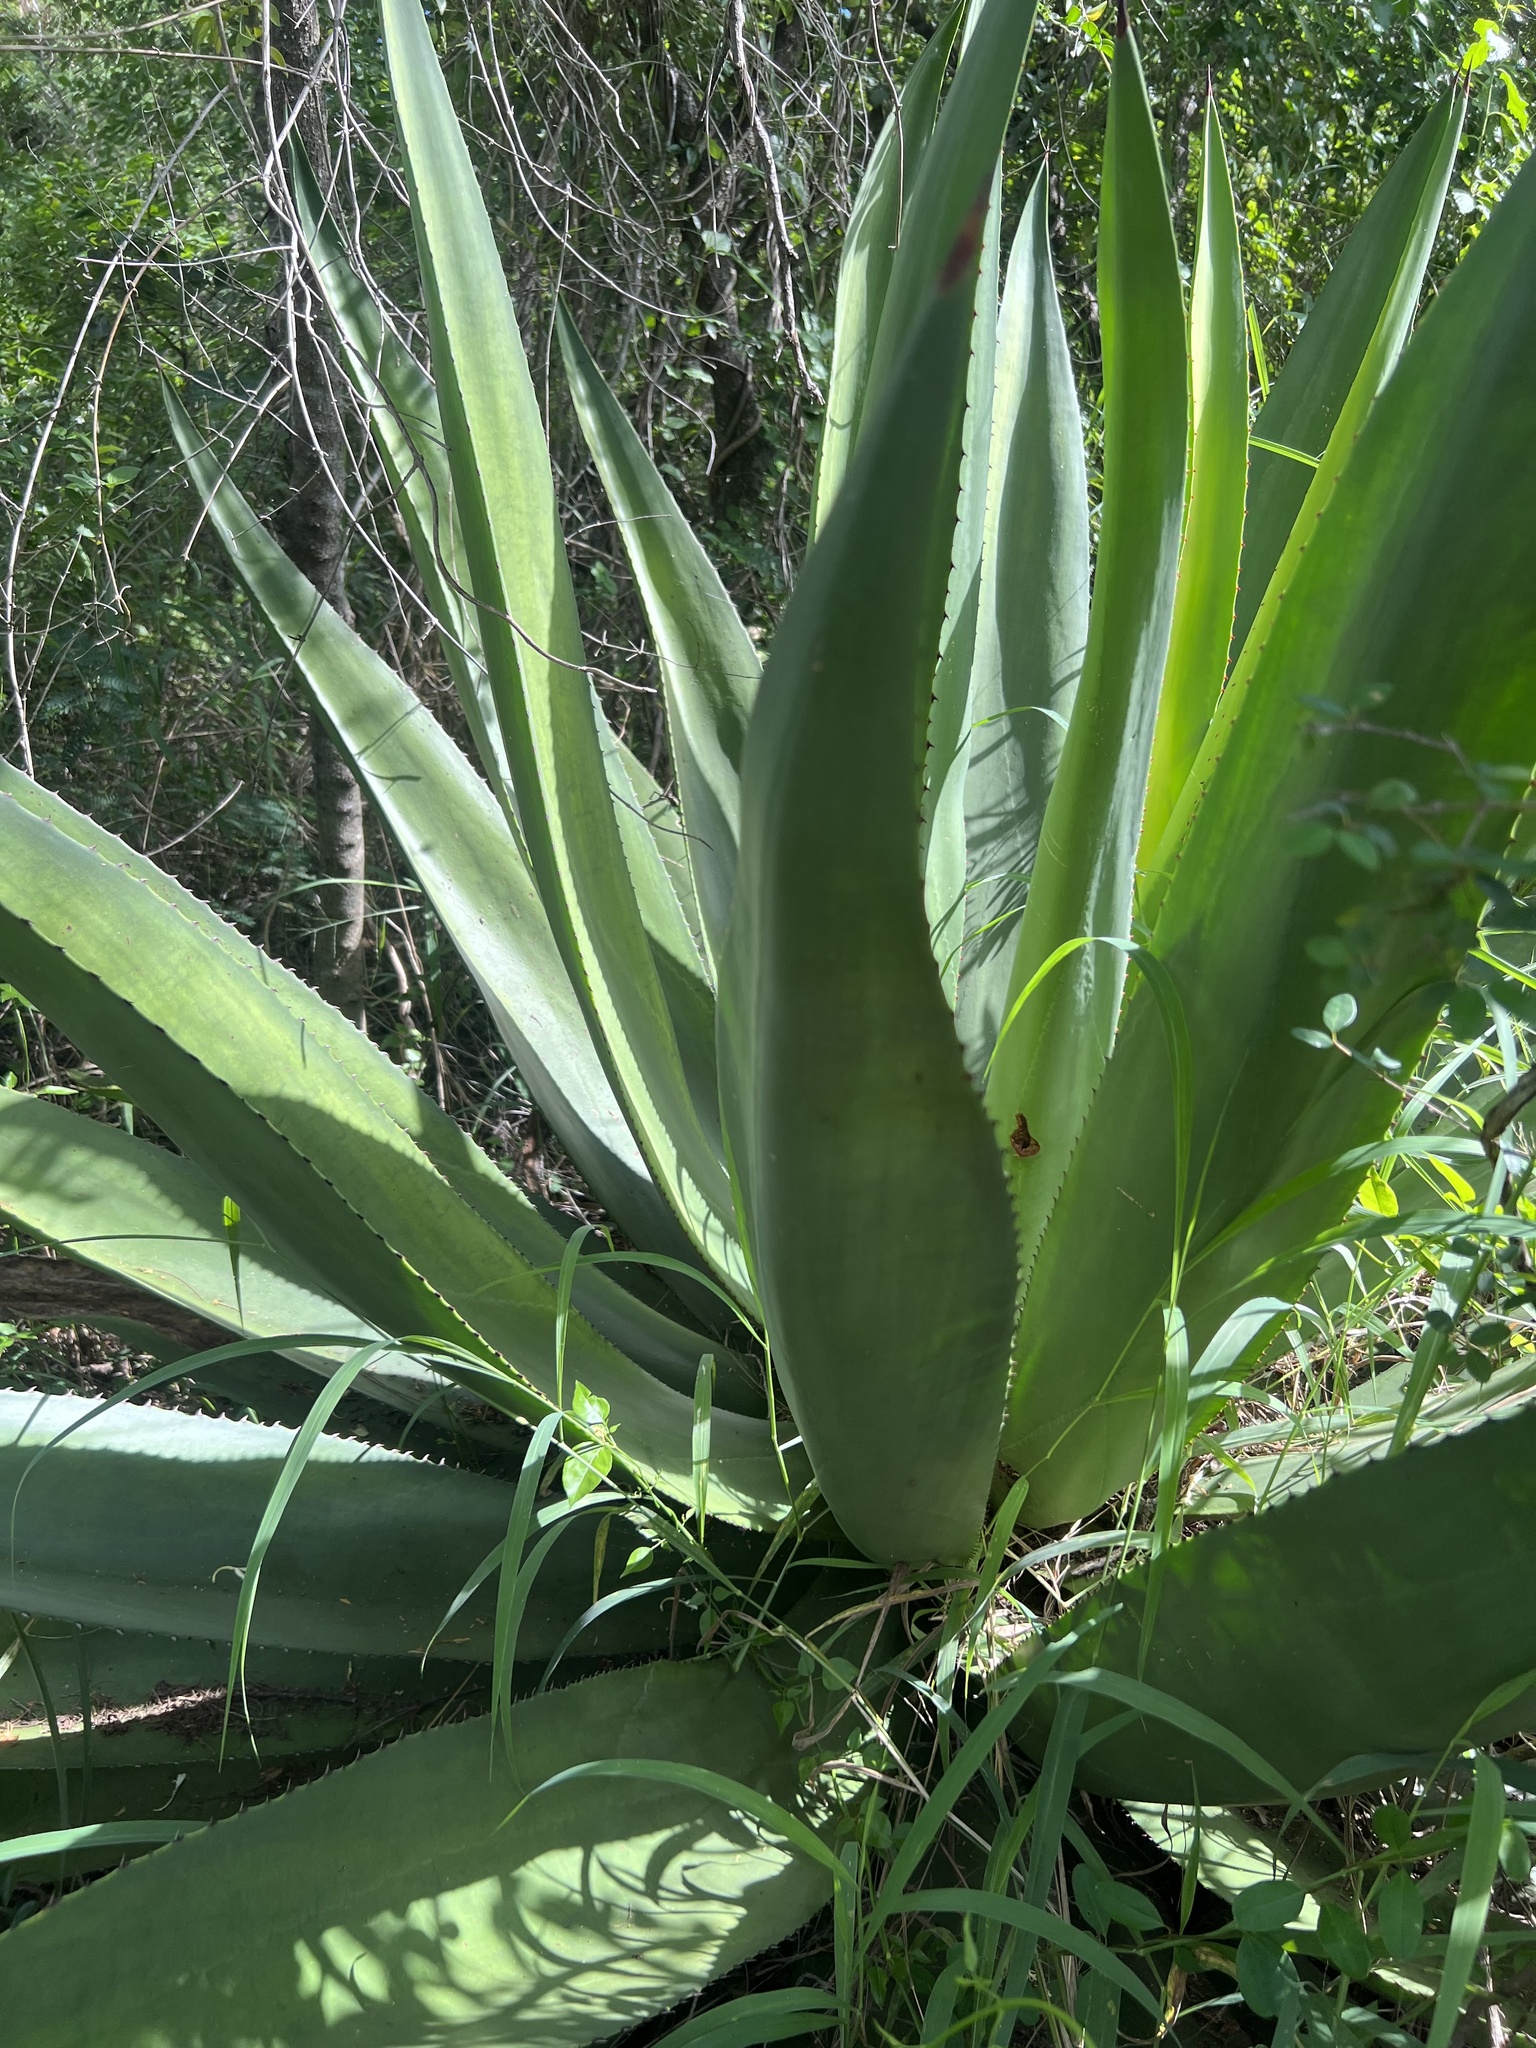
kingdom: Plantae
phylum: Tracheophyta
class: Liliopsida
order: Asparagales
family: Asparagaceae
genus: Agave
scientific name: Agave missionum
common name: Century plant
